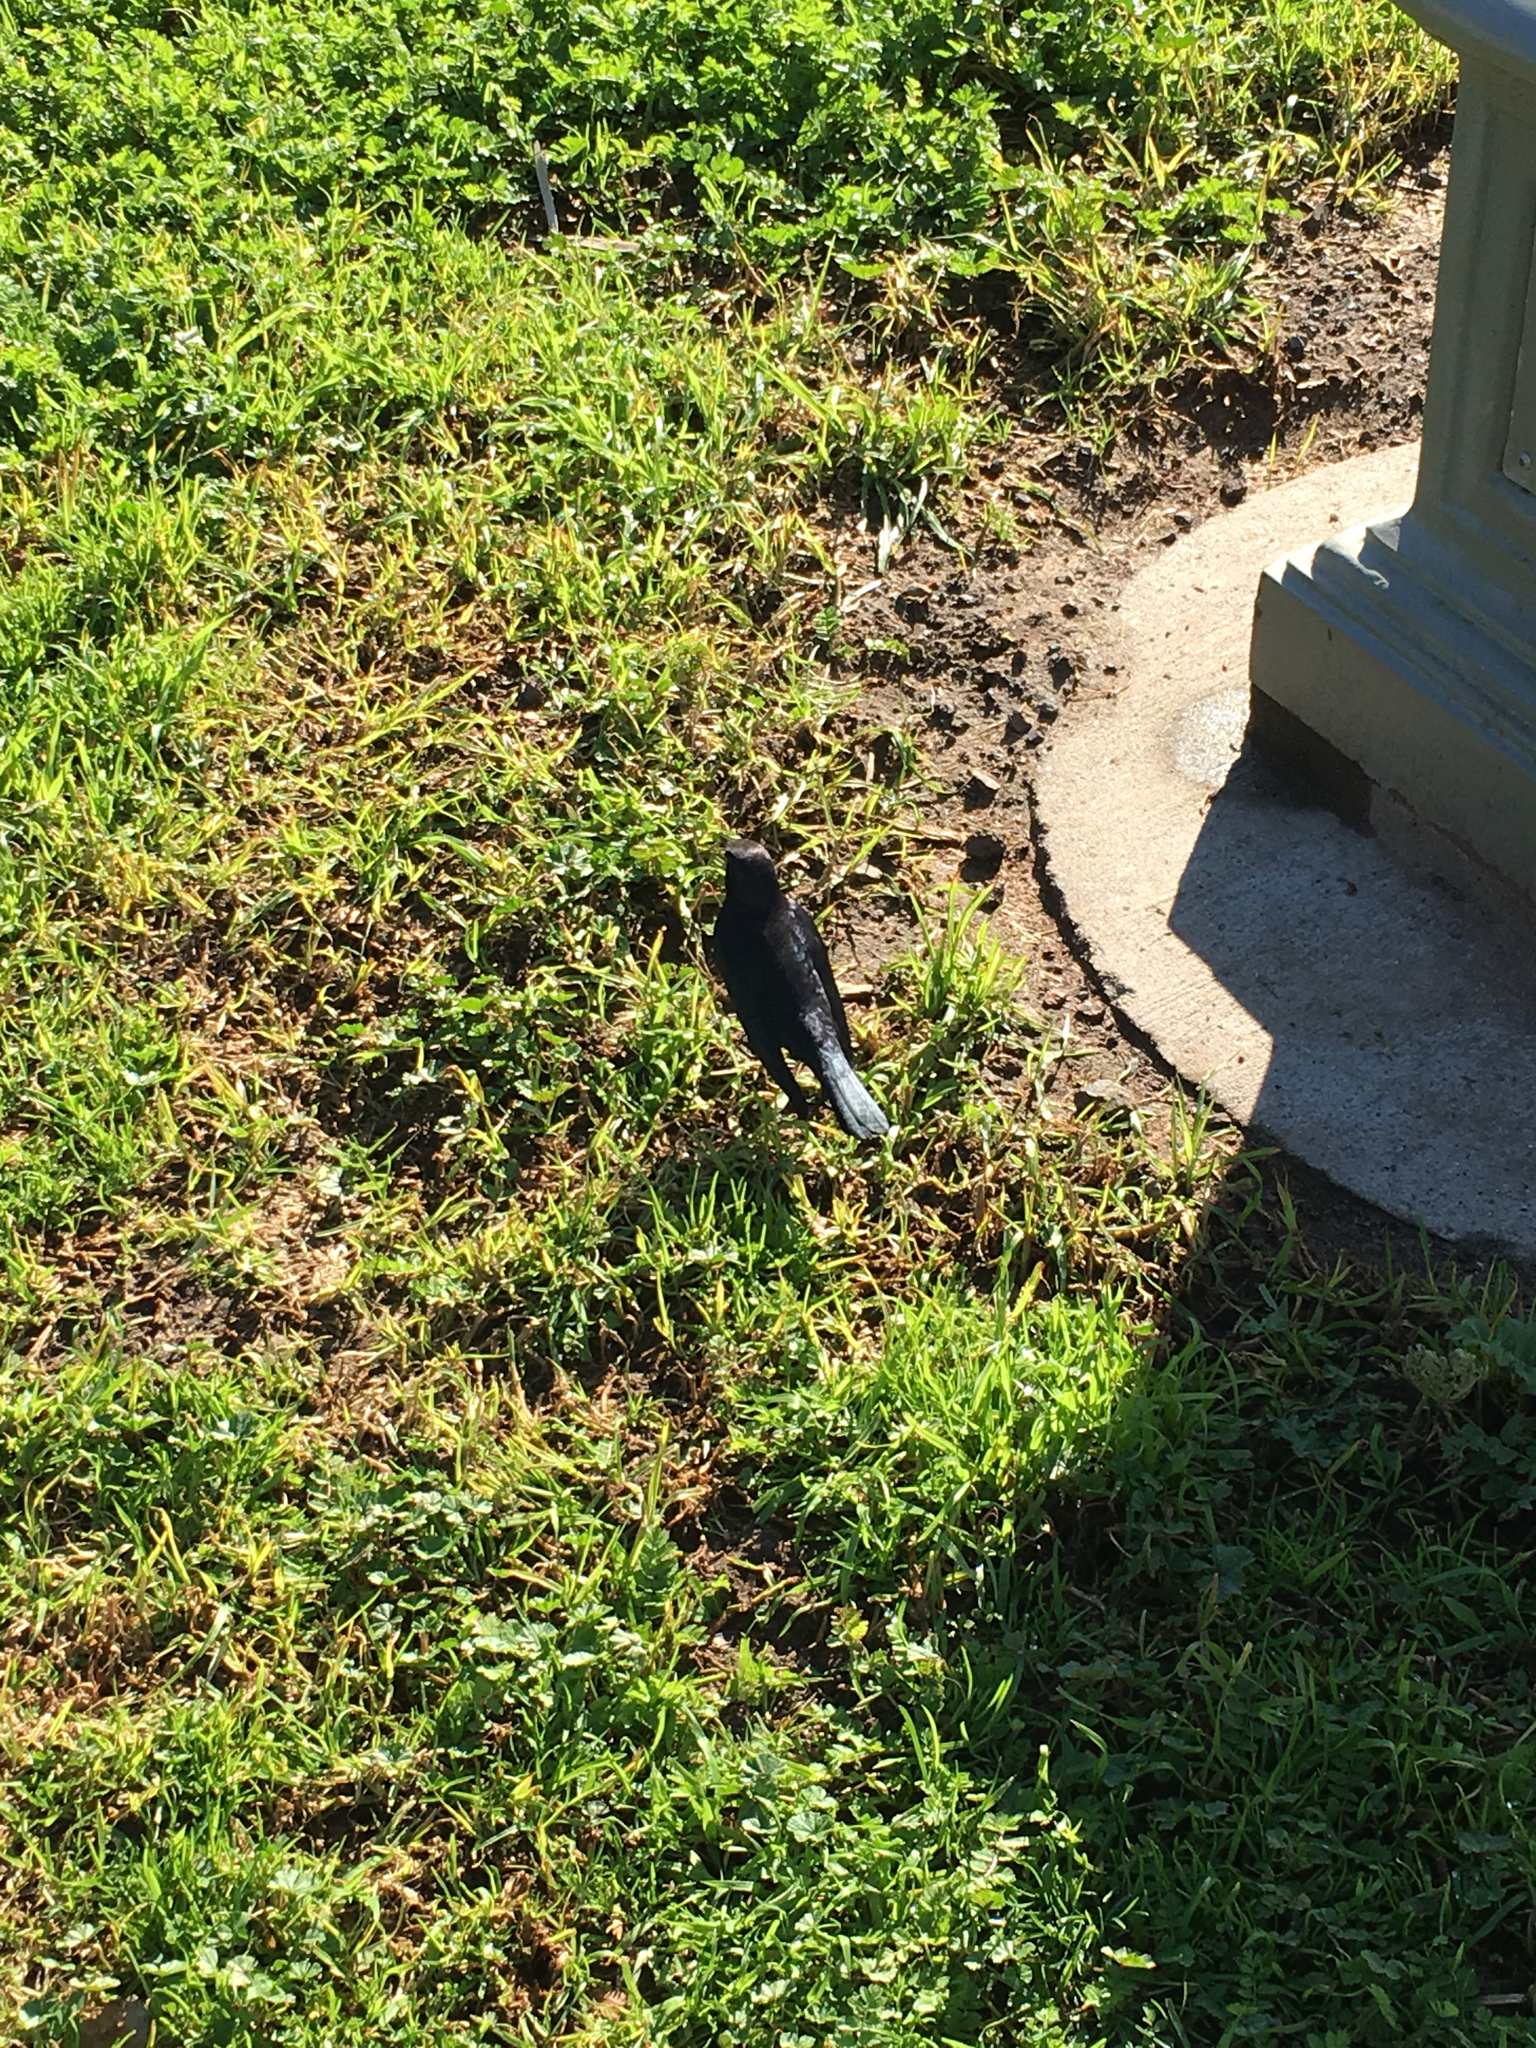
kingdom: Animalia
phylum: Chordata
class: Aves
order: Passeriformes
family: Icteridae
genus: Euphagus
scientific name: Euphagus cyanocephalus
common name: Brewer's blackbird
